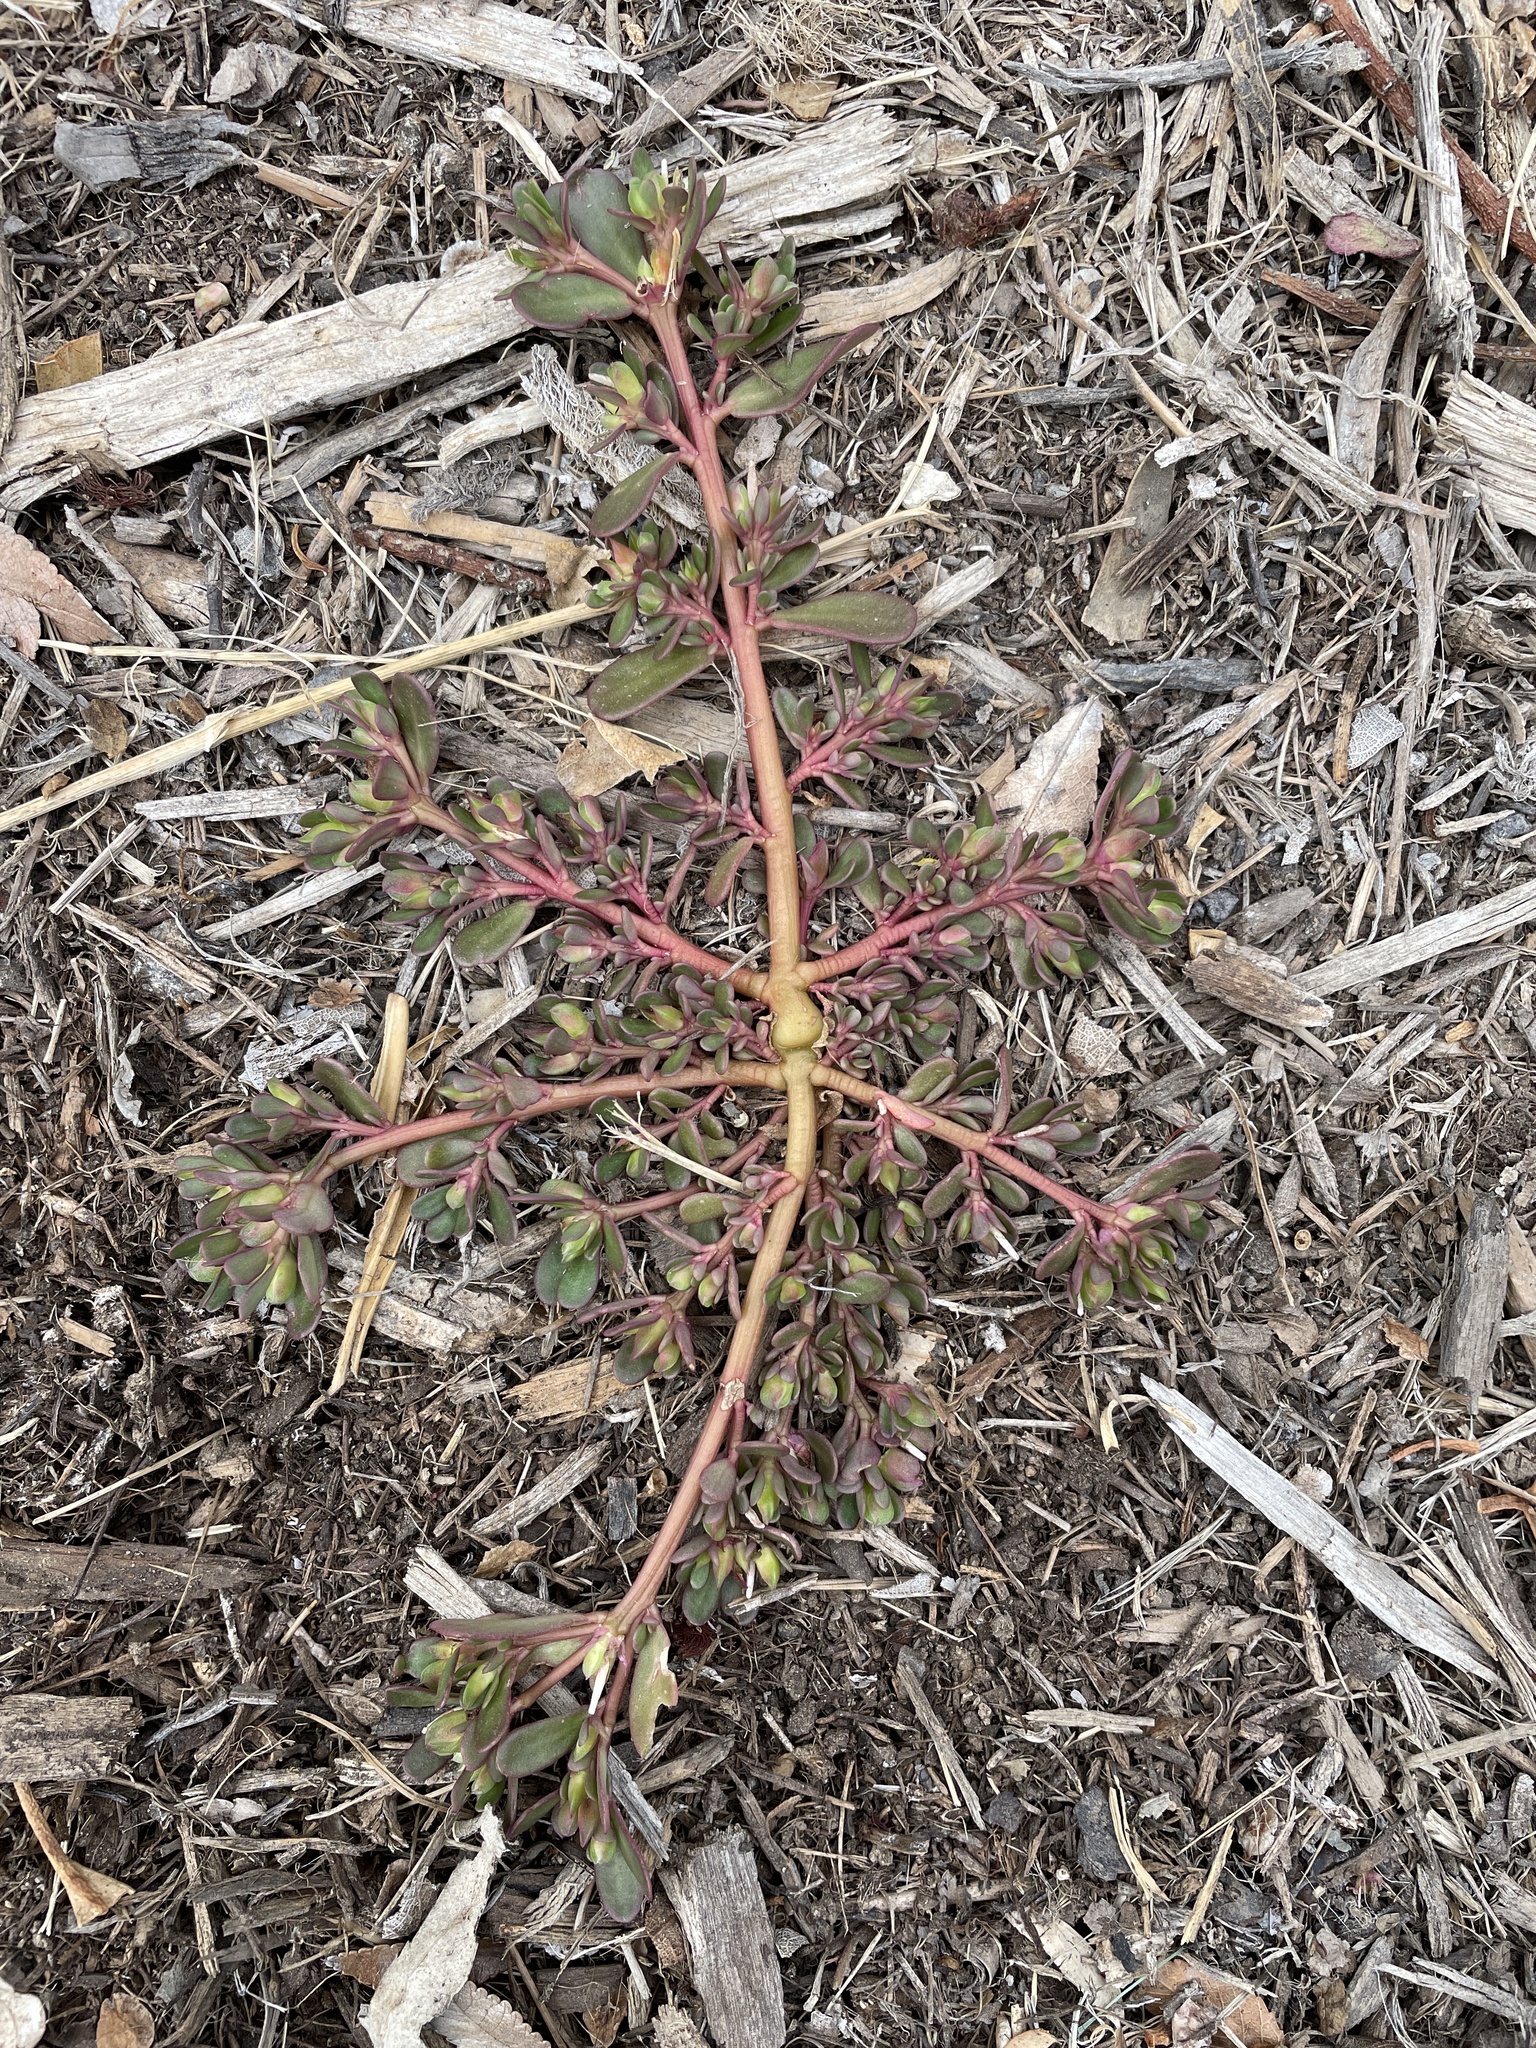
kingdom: Plantae
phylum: Tracheophyta
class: Magnoliopsida
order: Caryophyllales
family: Portulacaceae
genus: Portulaca
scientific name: Portulaca oleracea
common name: Common purslane
